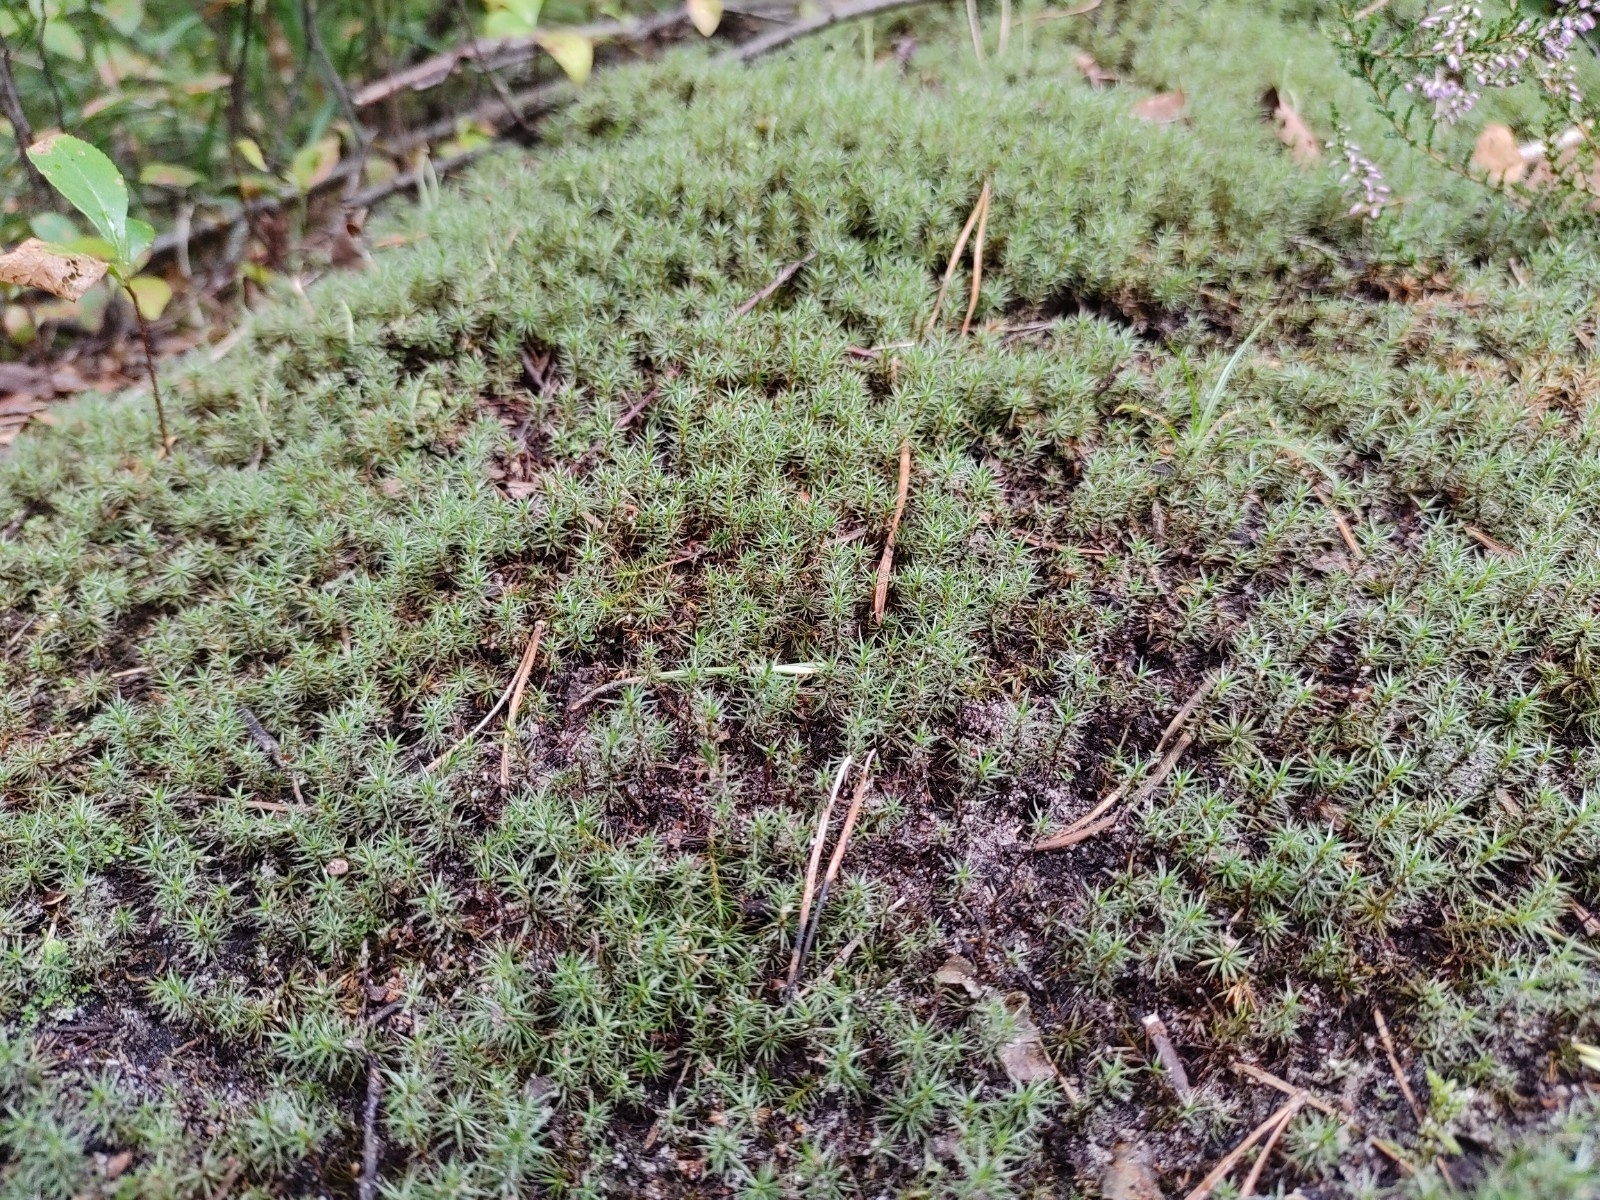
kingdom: Plantae
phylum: Bryophyta
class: Polytrichopsida
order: Polytrichales
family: Polytrichaceae
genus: Polytrichum
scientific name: Polytrichum juniperinum
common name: Juniper haircap moss
